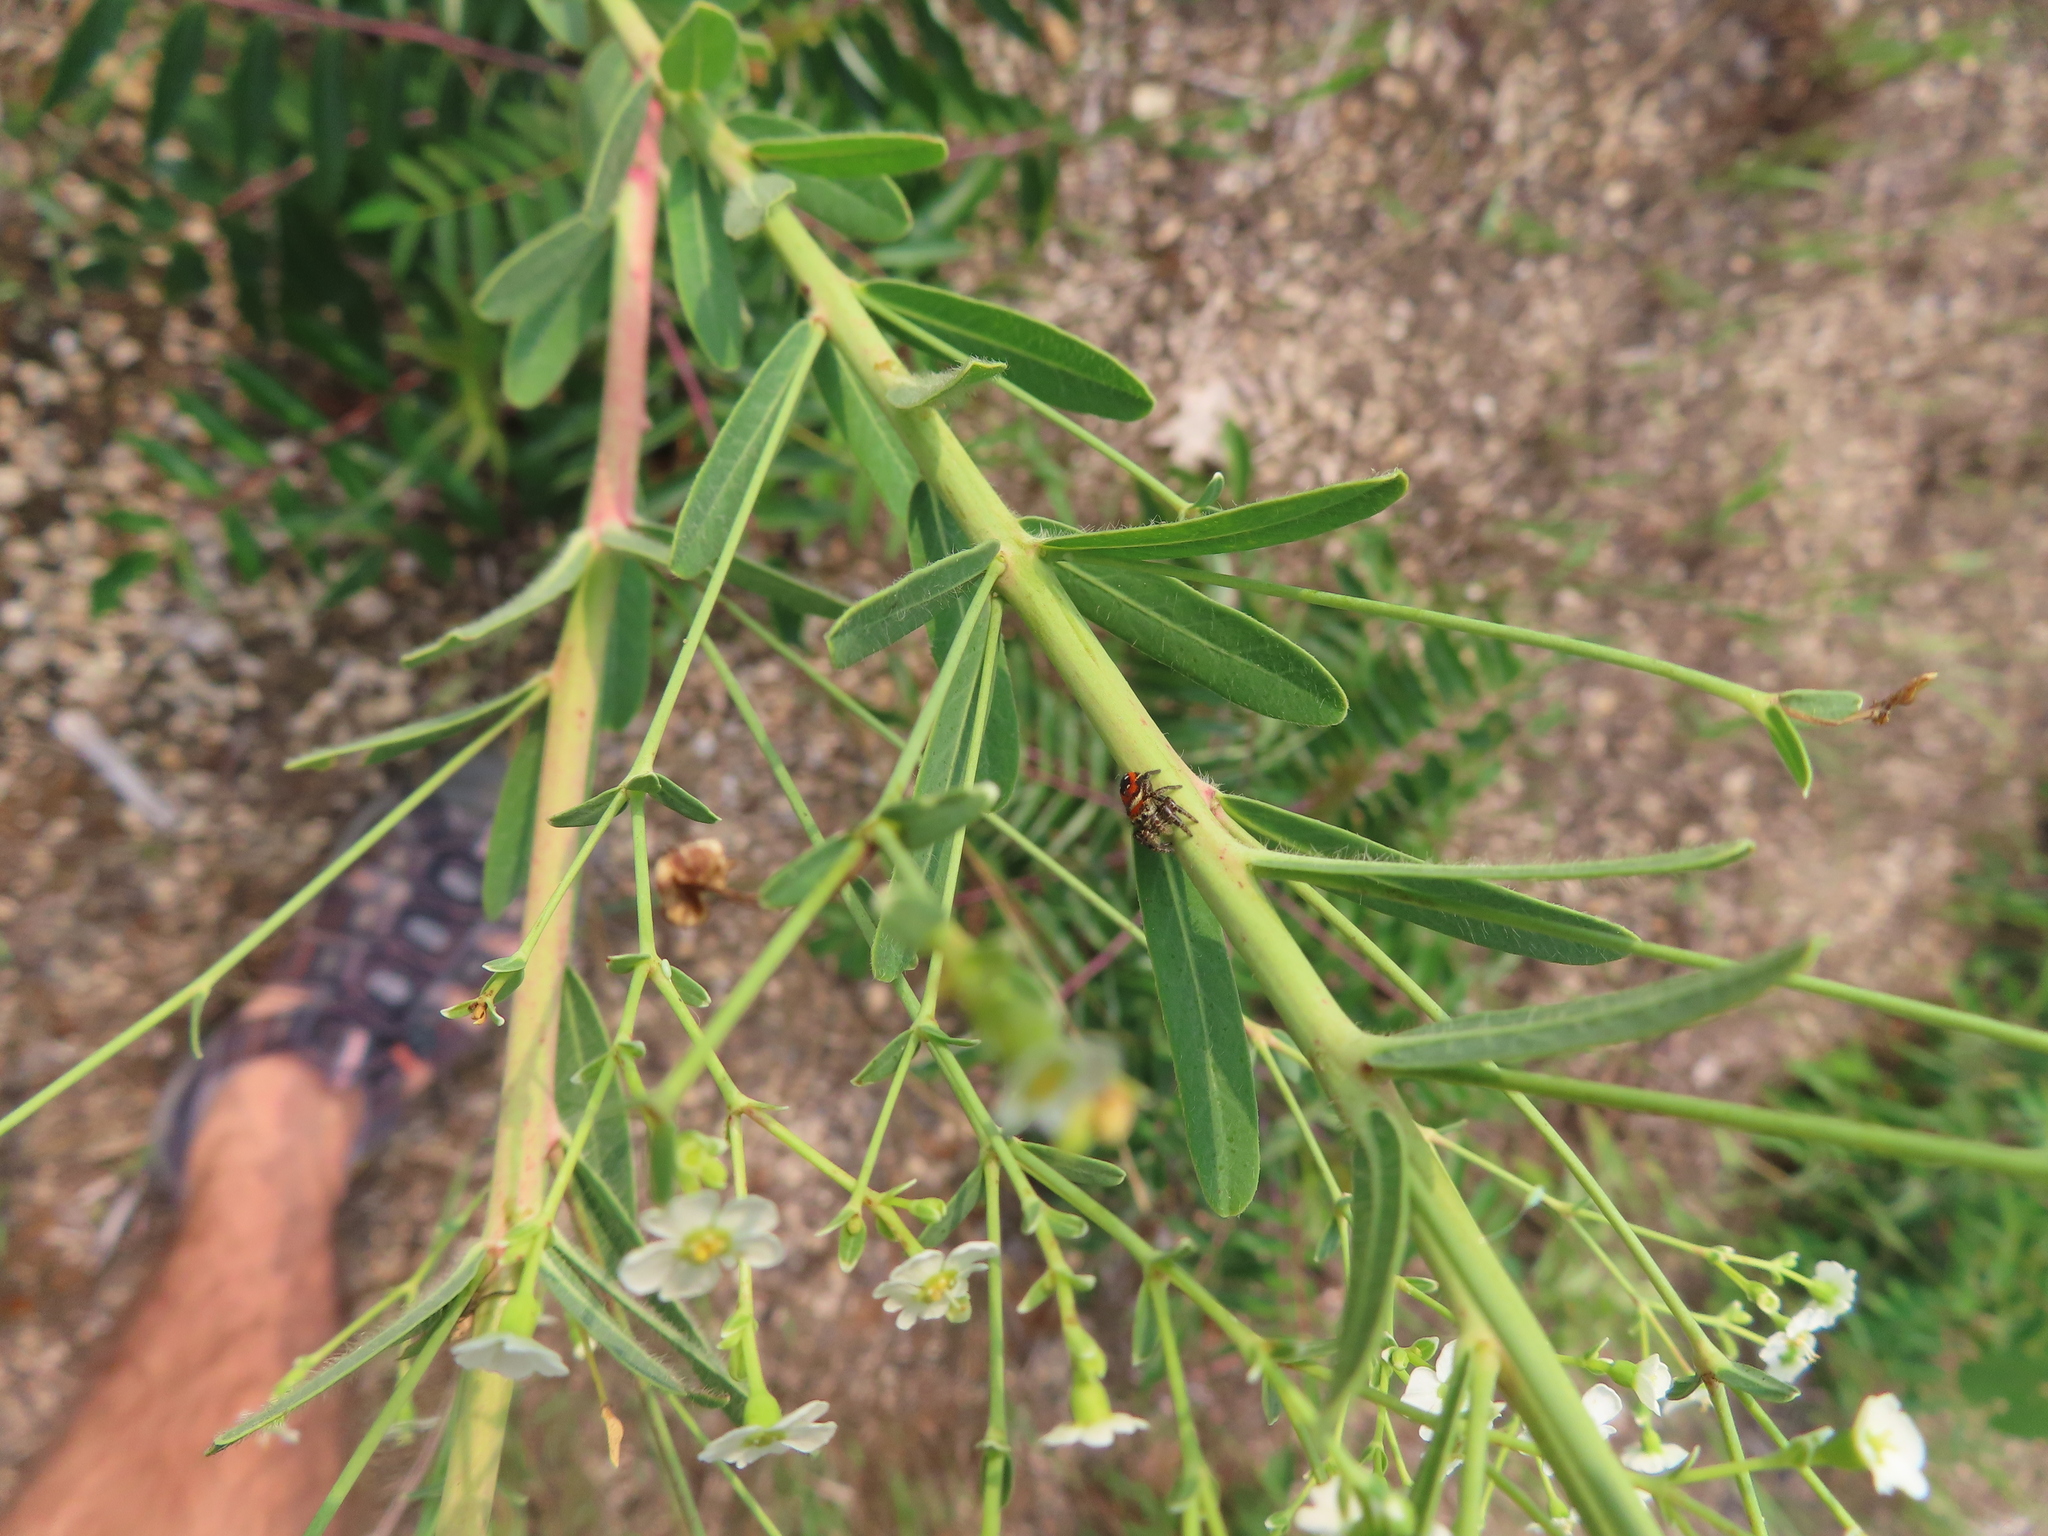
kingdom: Animalia
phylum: Arthropoda
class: Arachnida
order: Araneae
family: Salticidae
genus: Phidippus
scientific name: Phidippus apacheanus
